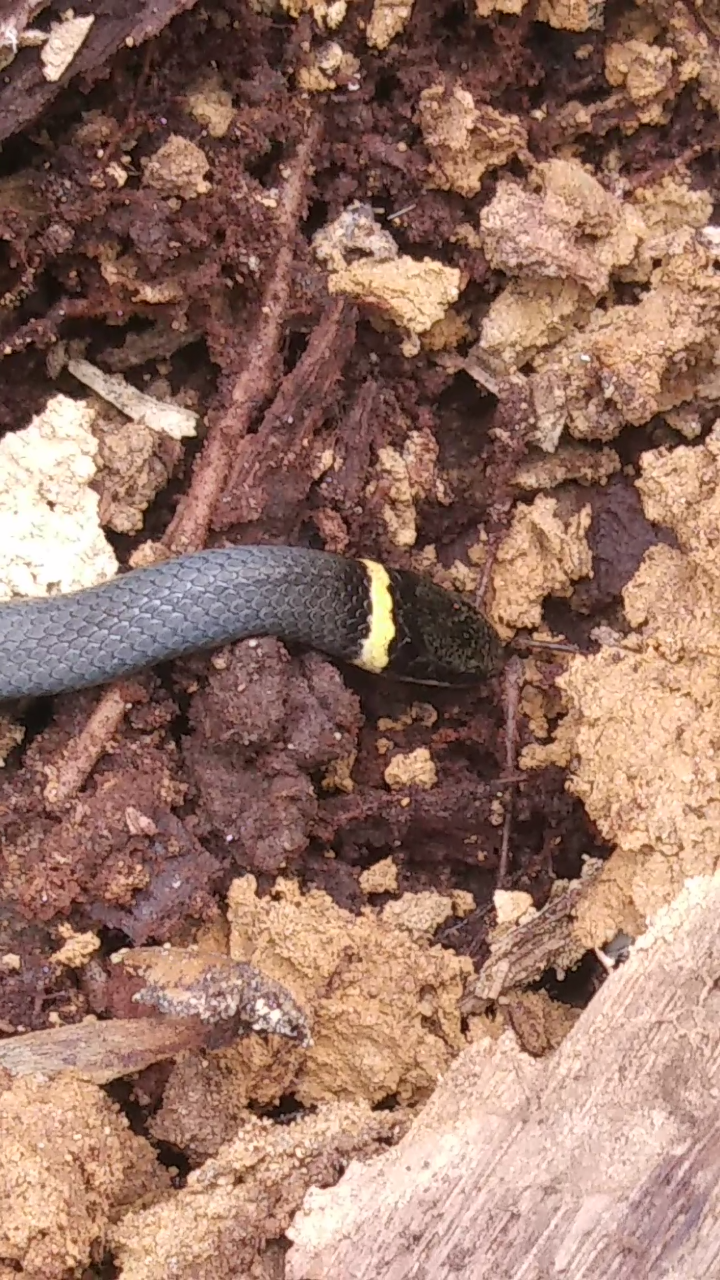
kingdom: Animalia
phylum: Chordata
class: Squamata
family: Colubridae
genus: Diadophis
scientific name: Diadophis punctatus
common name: Ringneck snake
